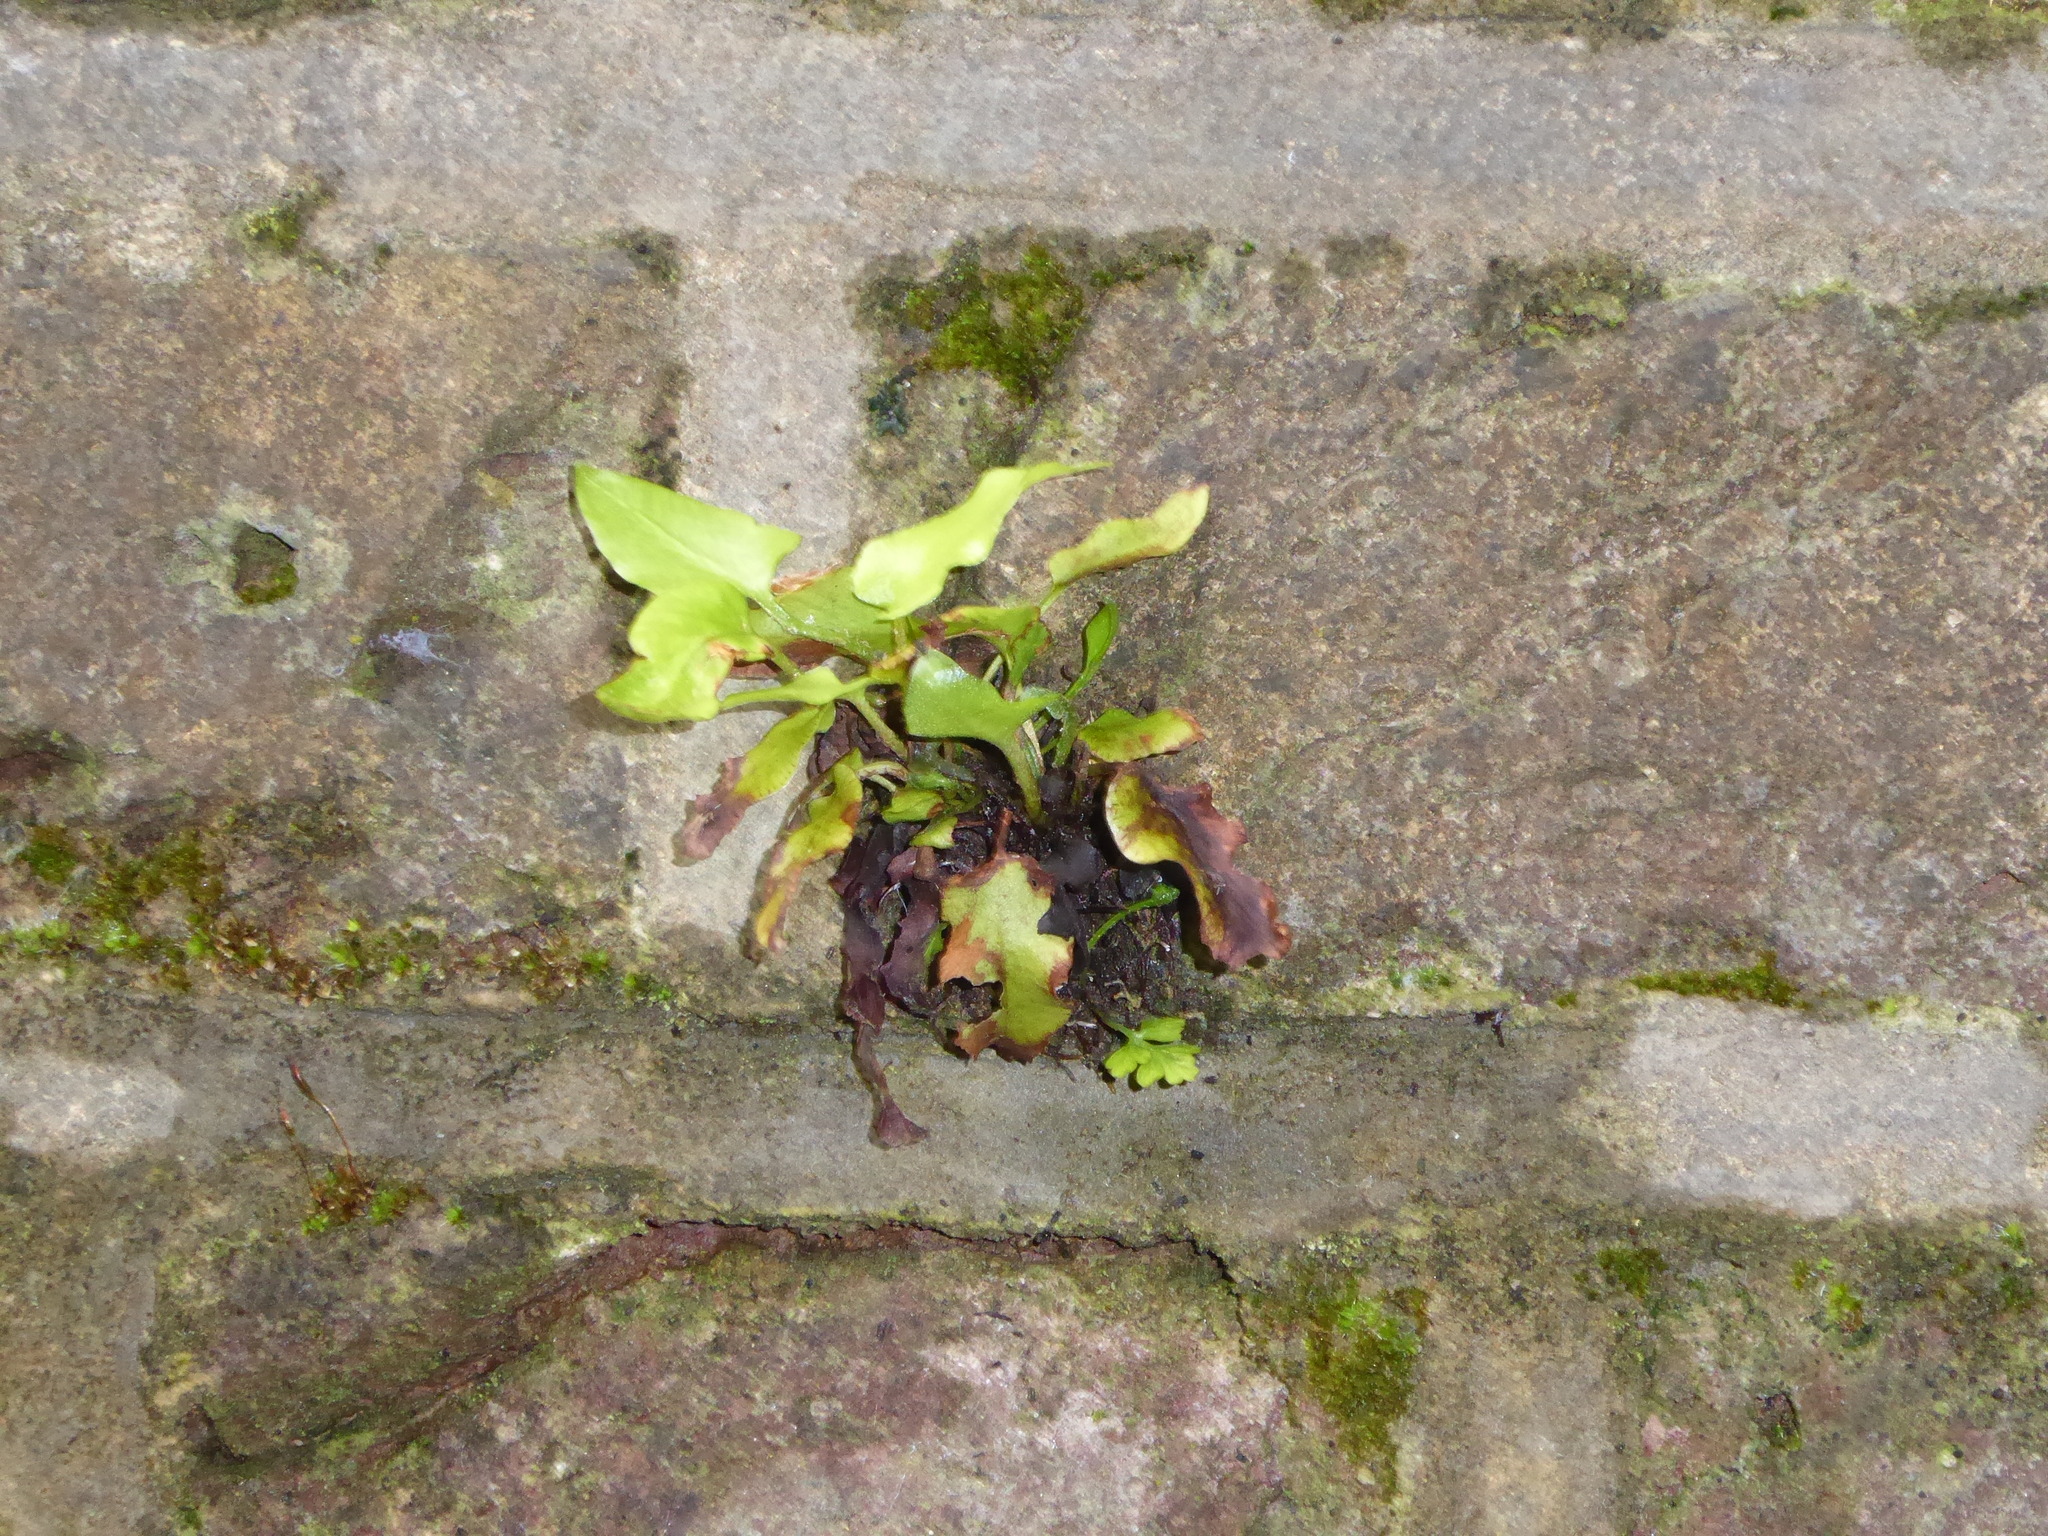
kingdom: Plantae
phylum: Tracheophyta
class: Polypodiopsida
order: Polypodiales
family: Aspleniaceae
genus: Asplenium
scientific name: Asplenium scolopendrium
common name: Hart's-tongue fern
